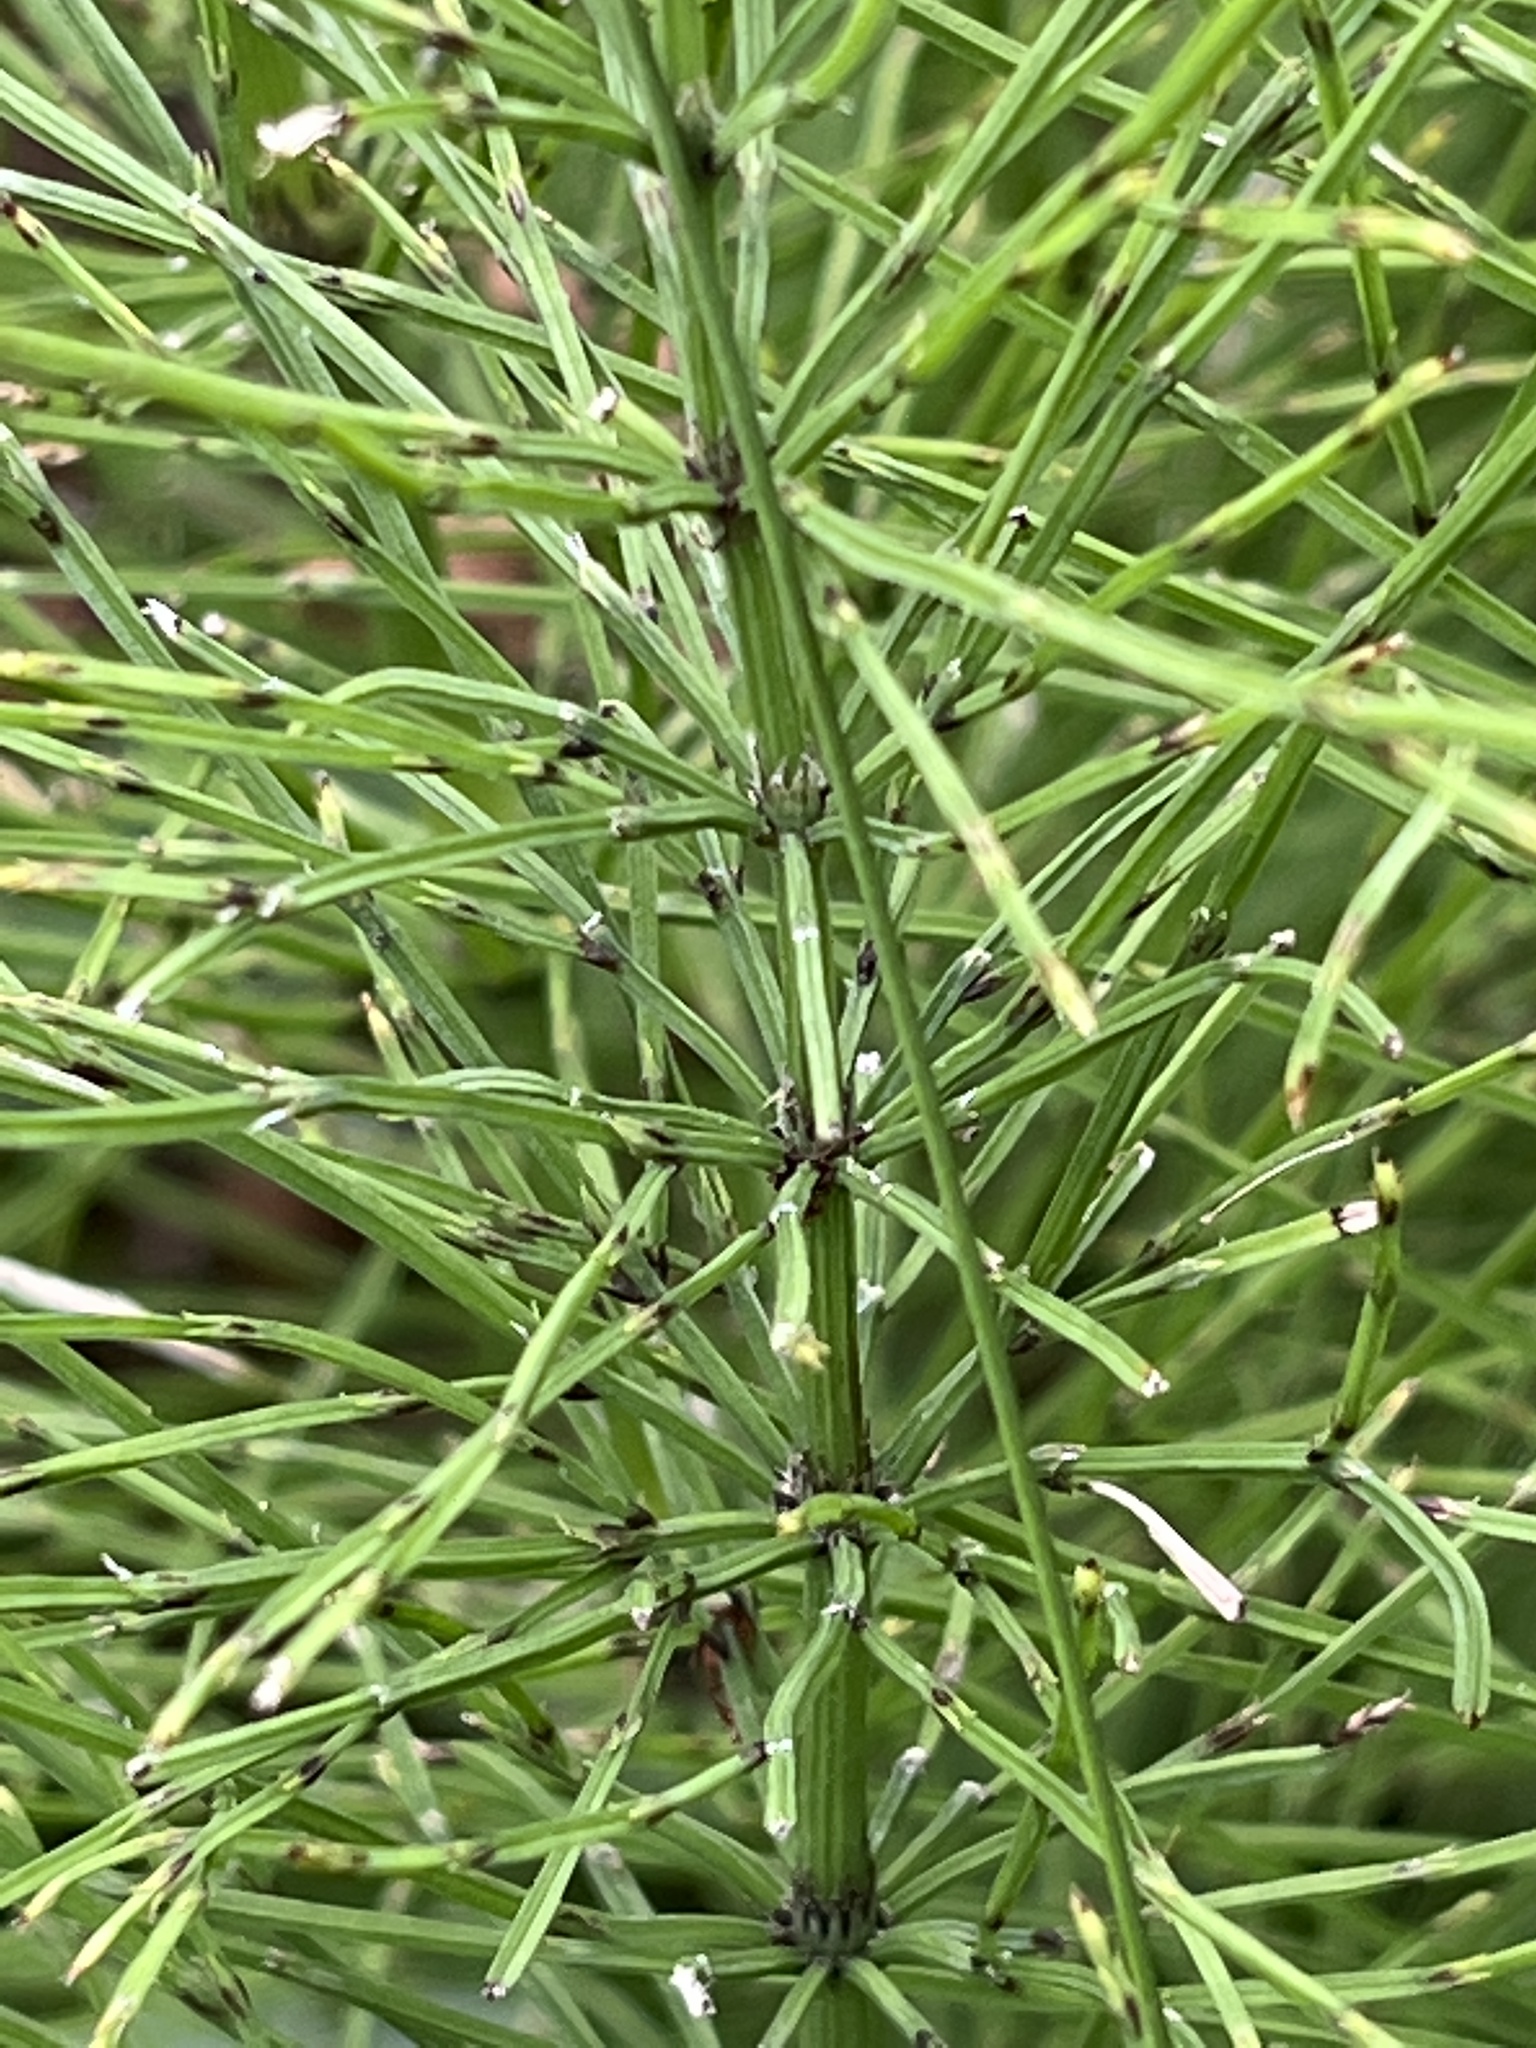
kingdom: Plantae
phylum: Tracheophyta
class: Polypodiopsida
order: Equisetales
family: Equisetaceae
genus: Equisetum
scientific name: Equisetum arvense
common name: Field horsetail
